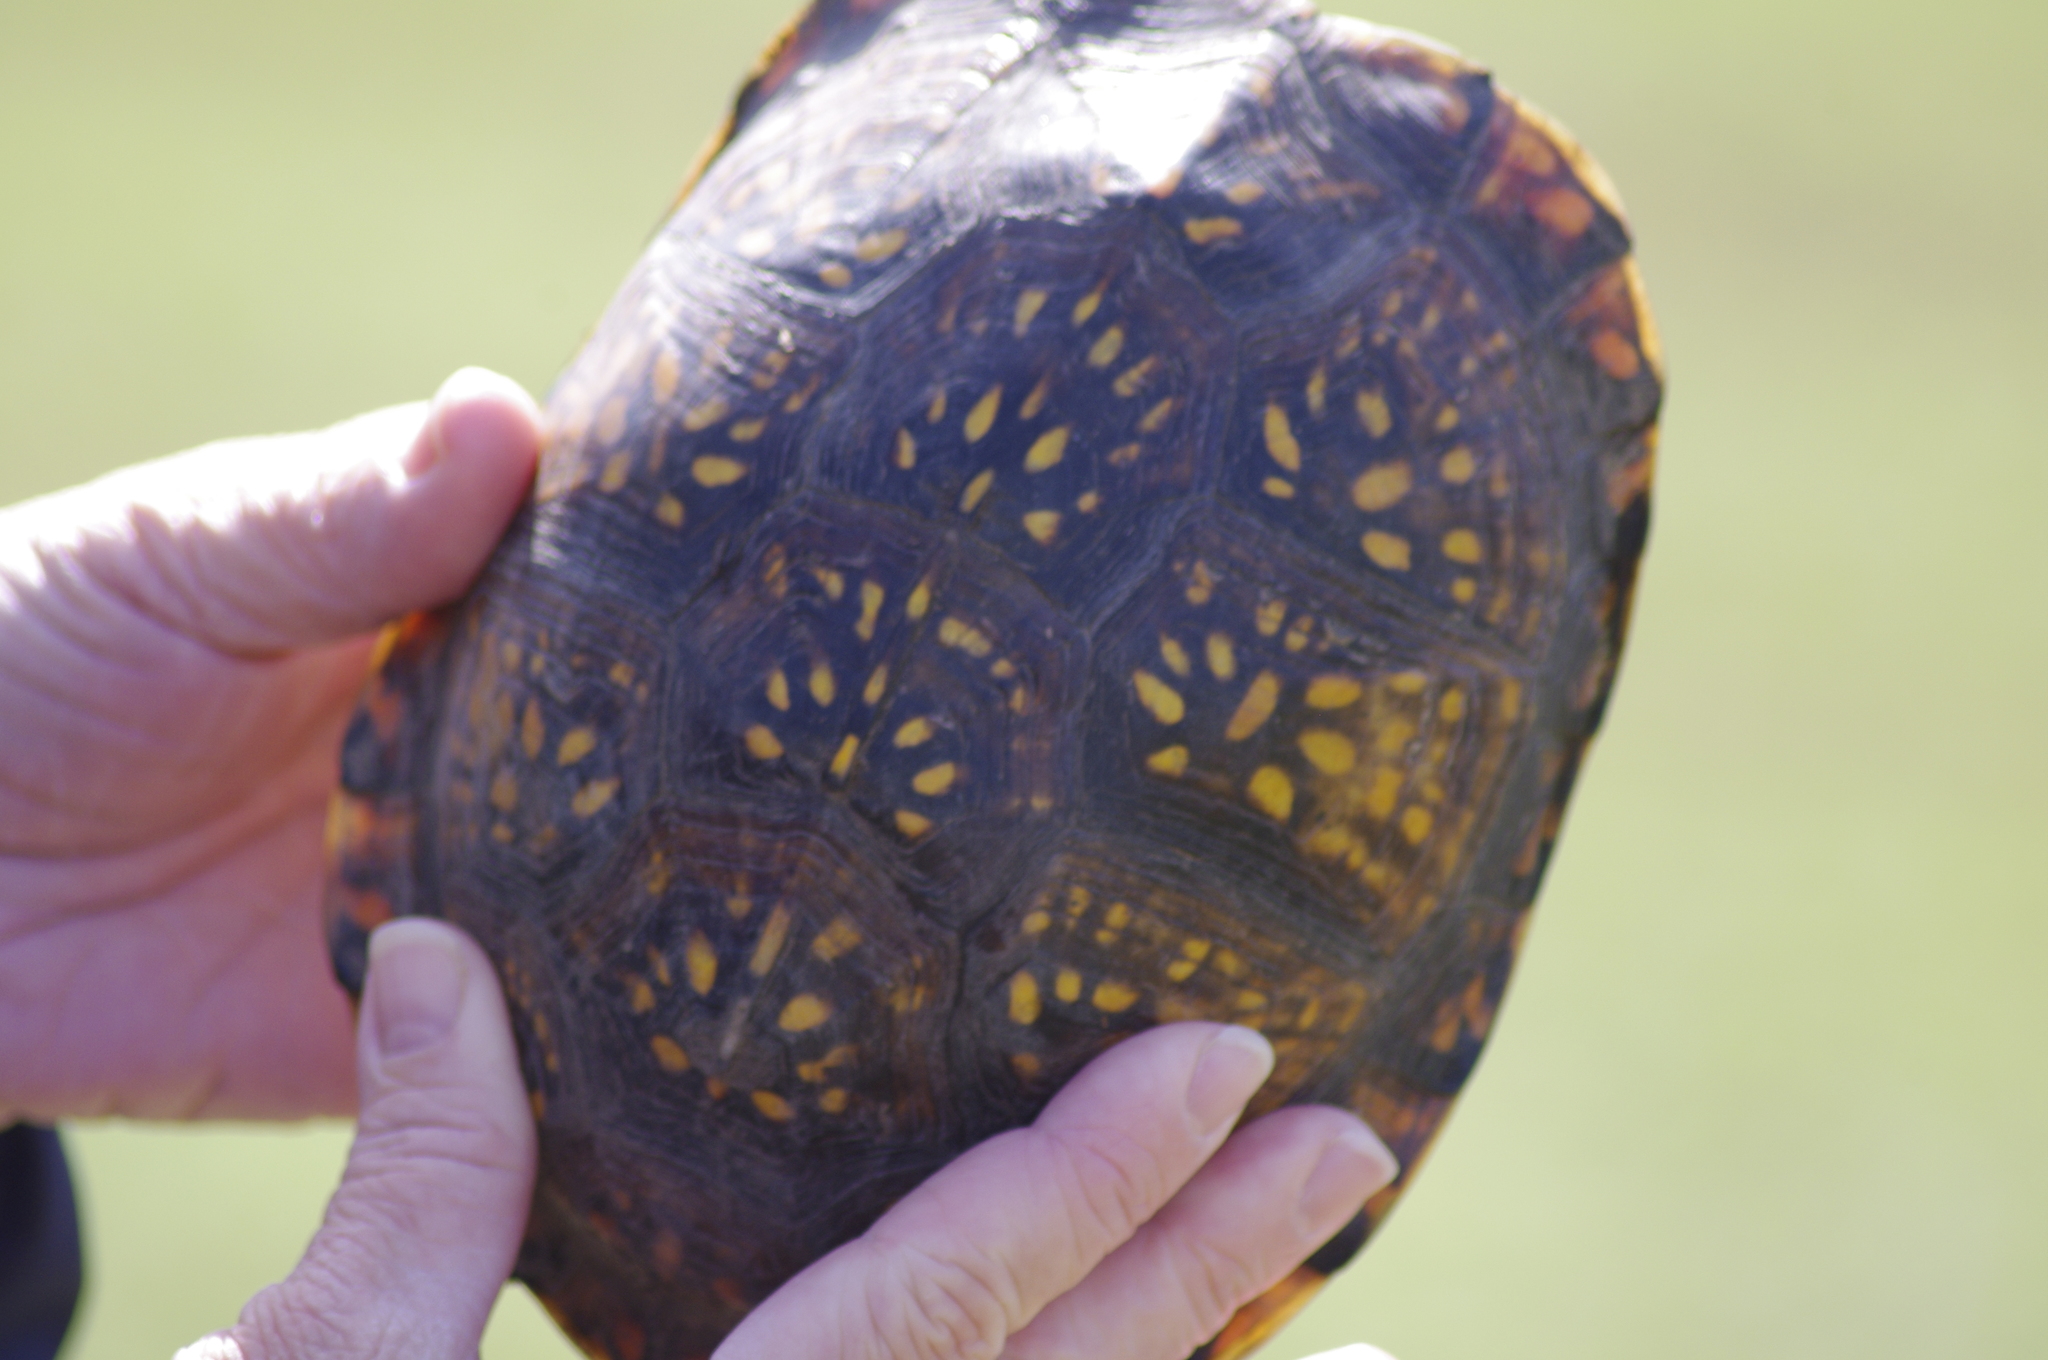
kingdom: Animalia
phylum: Chordata
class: Testudines
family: Emydidae
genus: Terrapene
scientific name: Terrapene carolina
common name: Common box turtle
